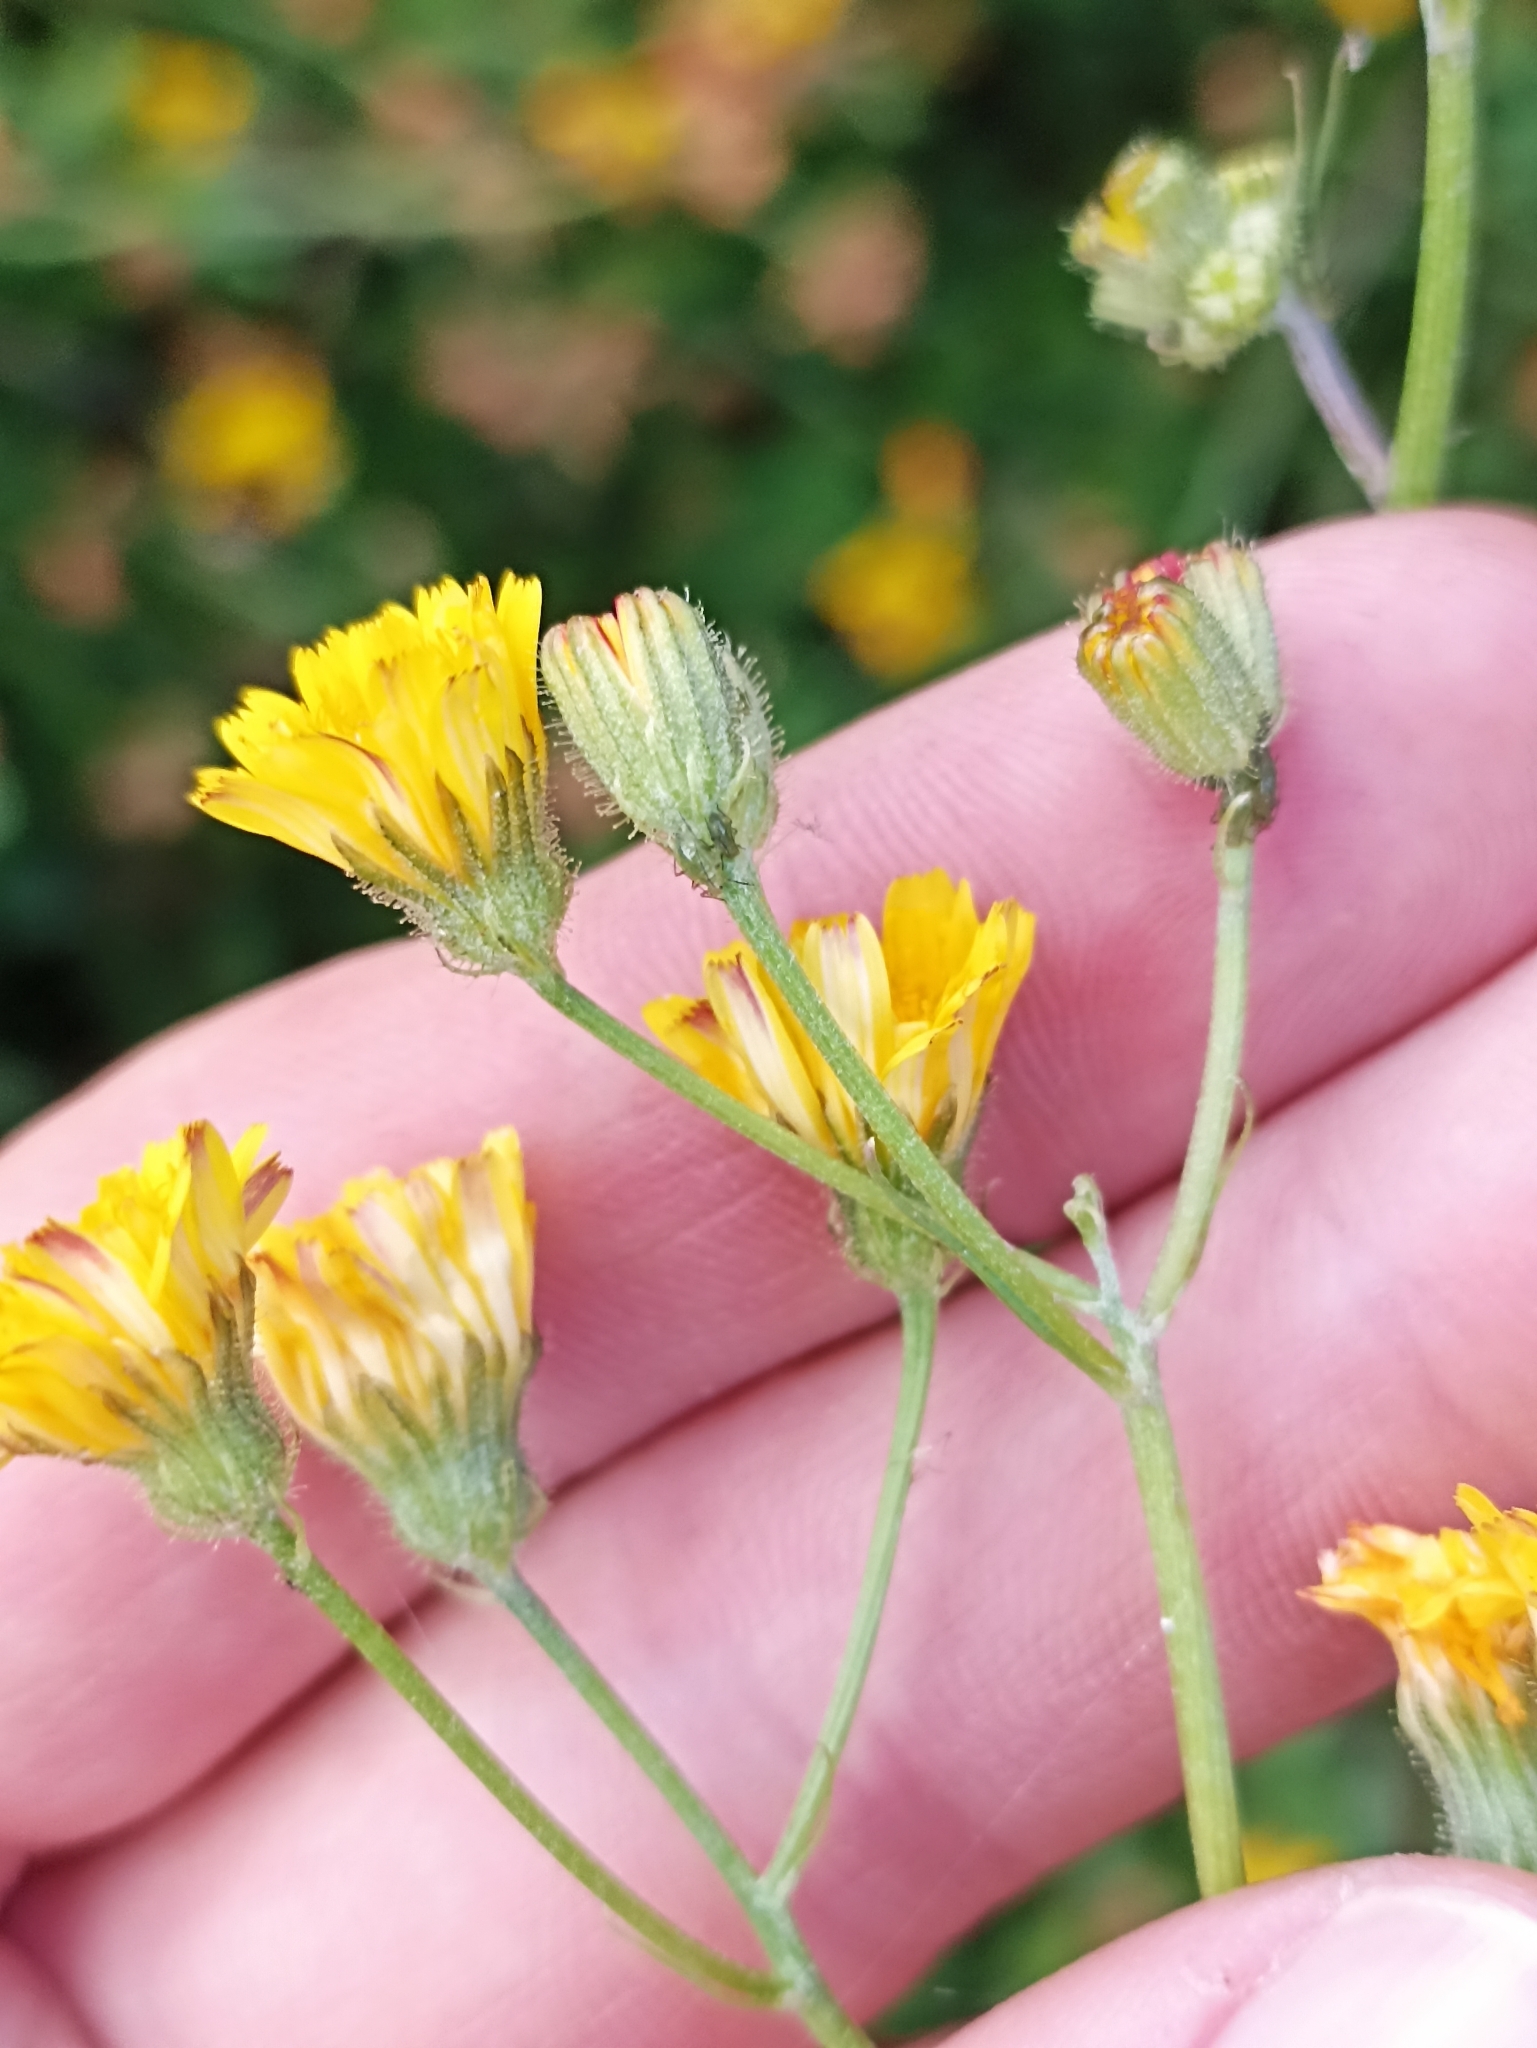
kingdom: Plantae
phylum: Tracheophyta
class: Magnoliopsida
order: Asterales
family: Asteraceae
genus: Crepis
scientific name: Crepis capillaris
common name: Smooth hawksbeard
